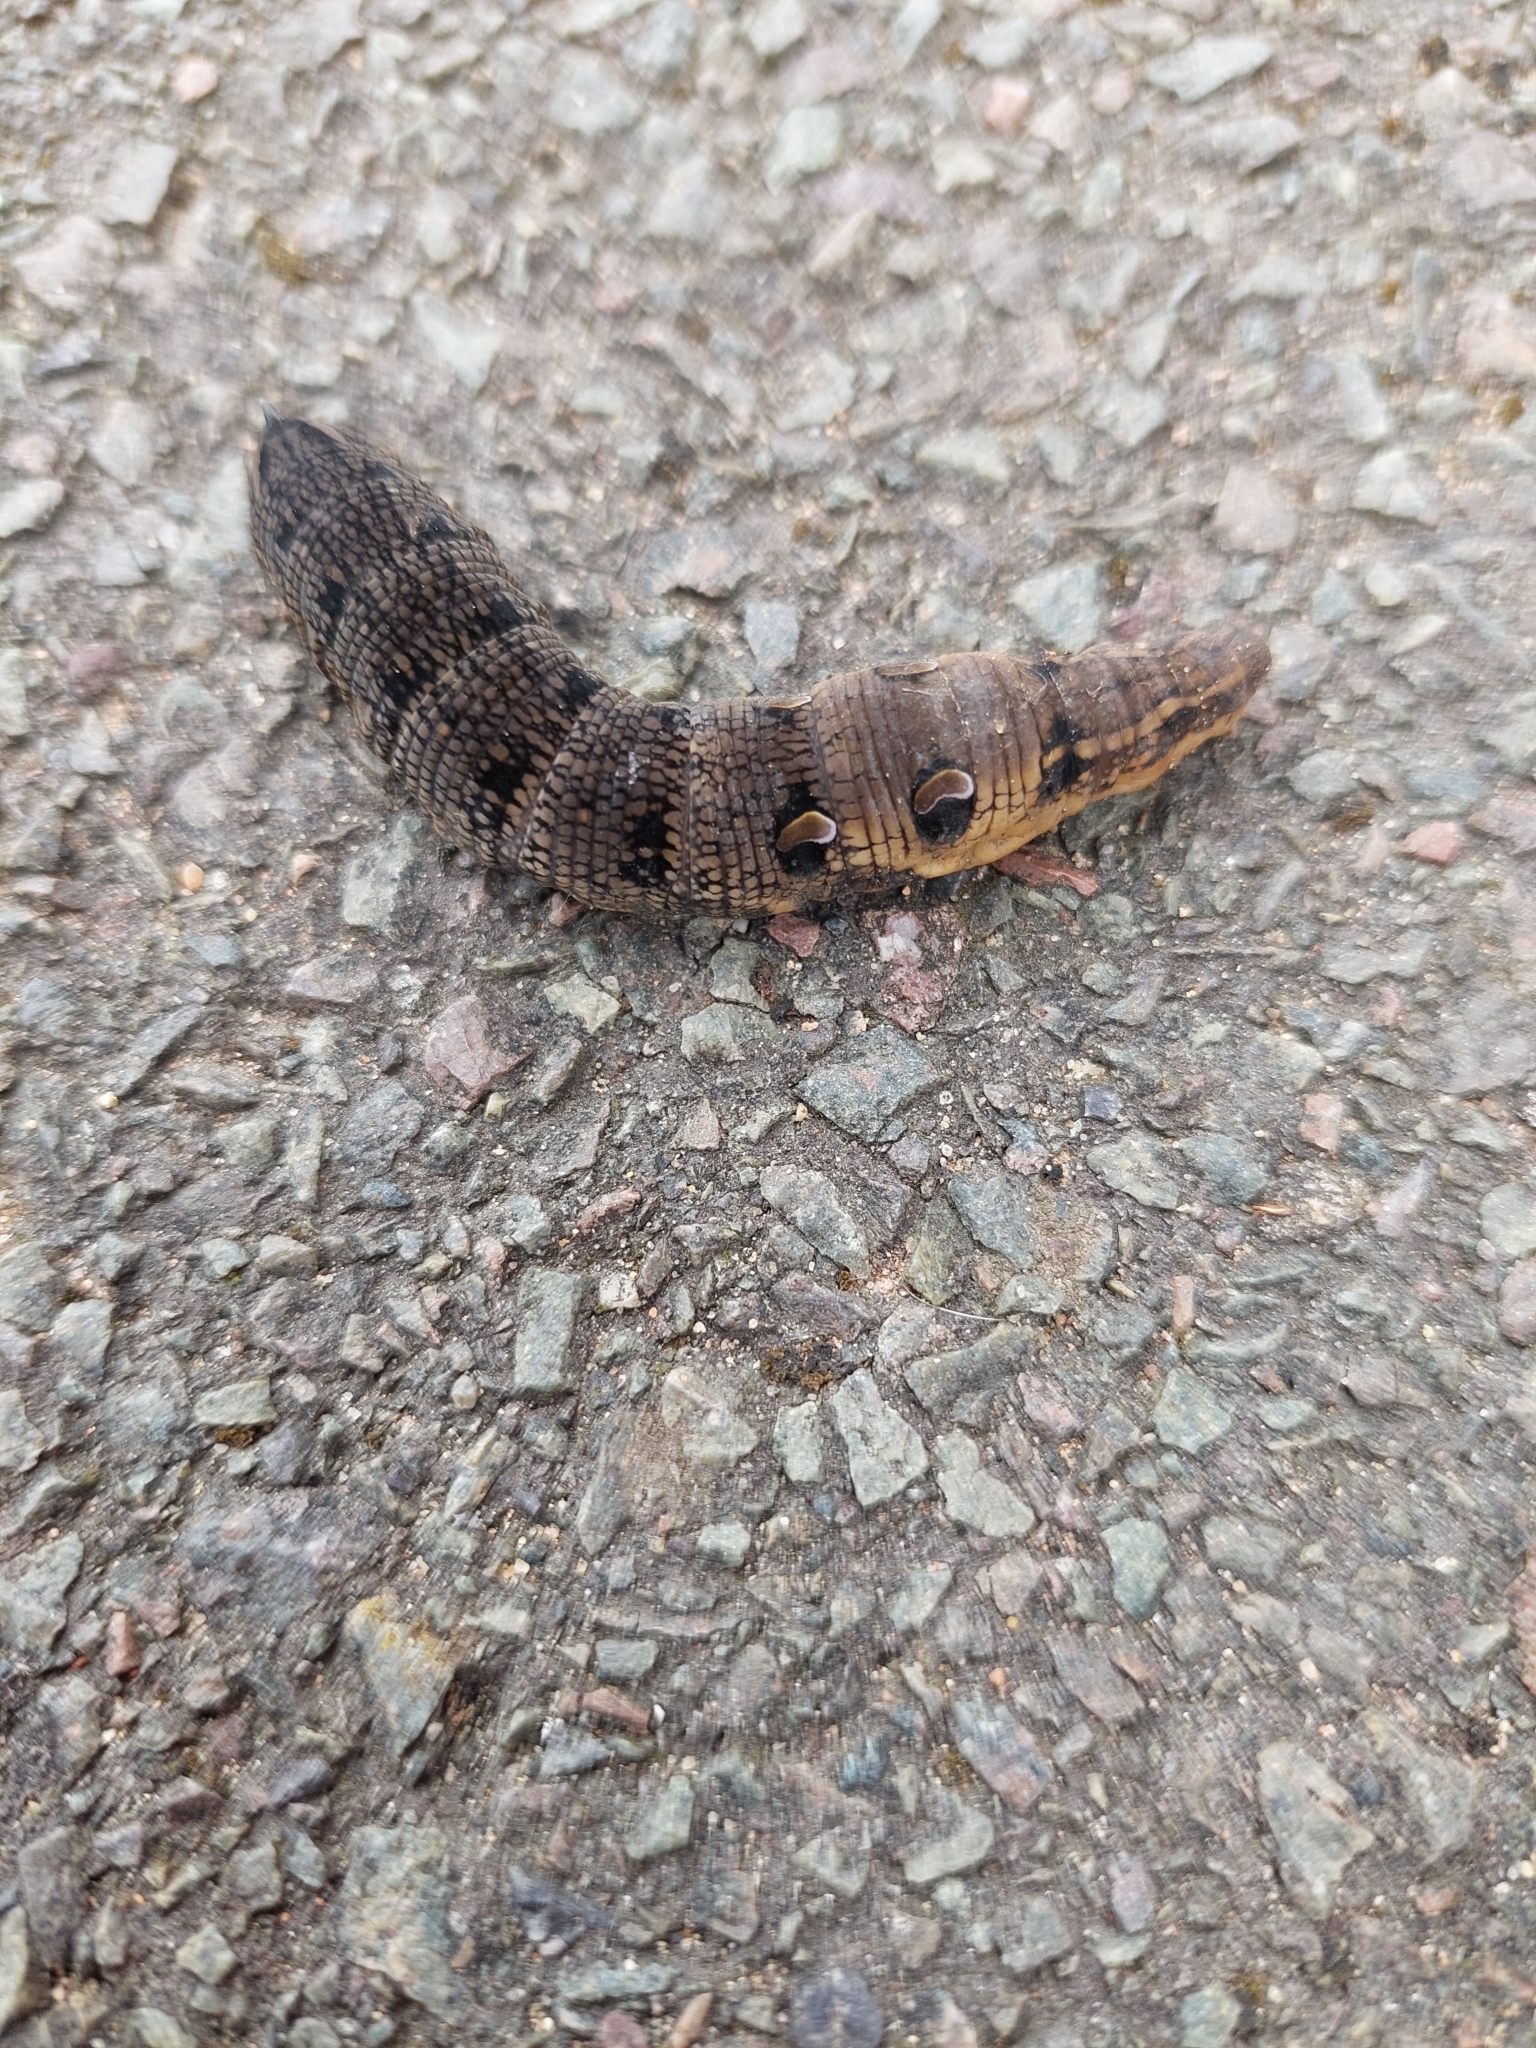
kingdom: Animalia
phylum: Arthropoda
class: Insecta
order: Lepidoptera
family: Sphingidae
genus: Deilephila
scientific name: Deilephila elpenor
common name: Elephant hawk-moth
